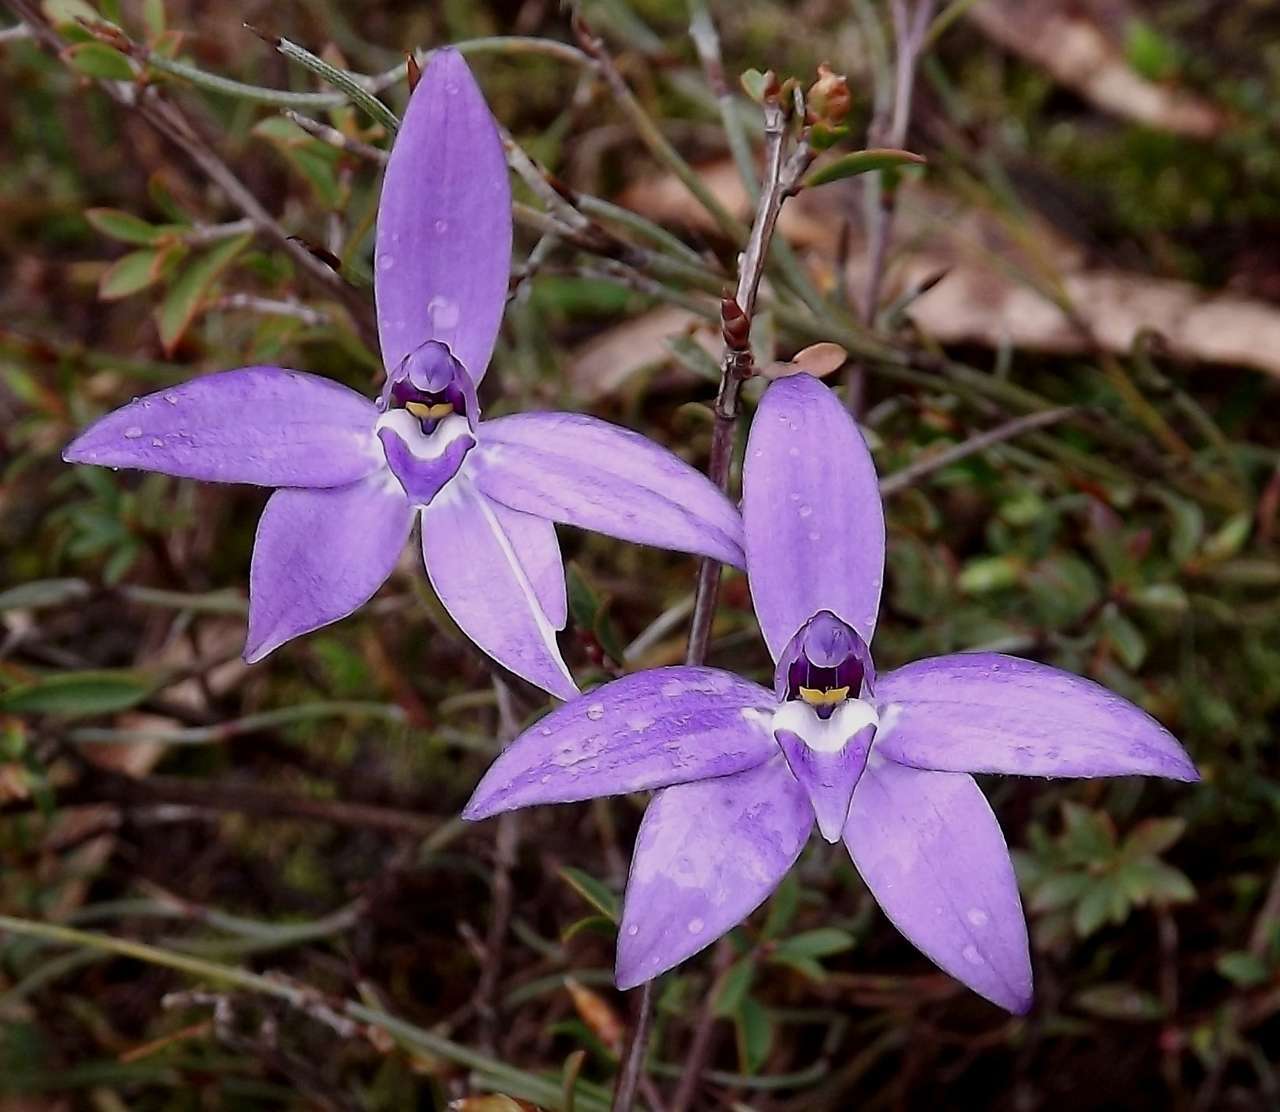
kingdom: Plantae
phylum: Tracheophyta
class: Liliopsida
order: Asparagales
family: Orchidaceae
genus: Caladenia
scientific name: Caladenia major
